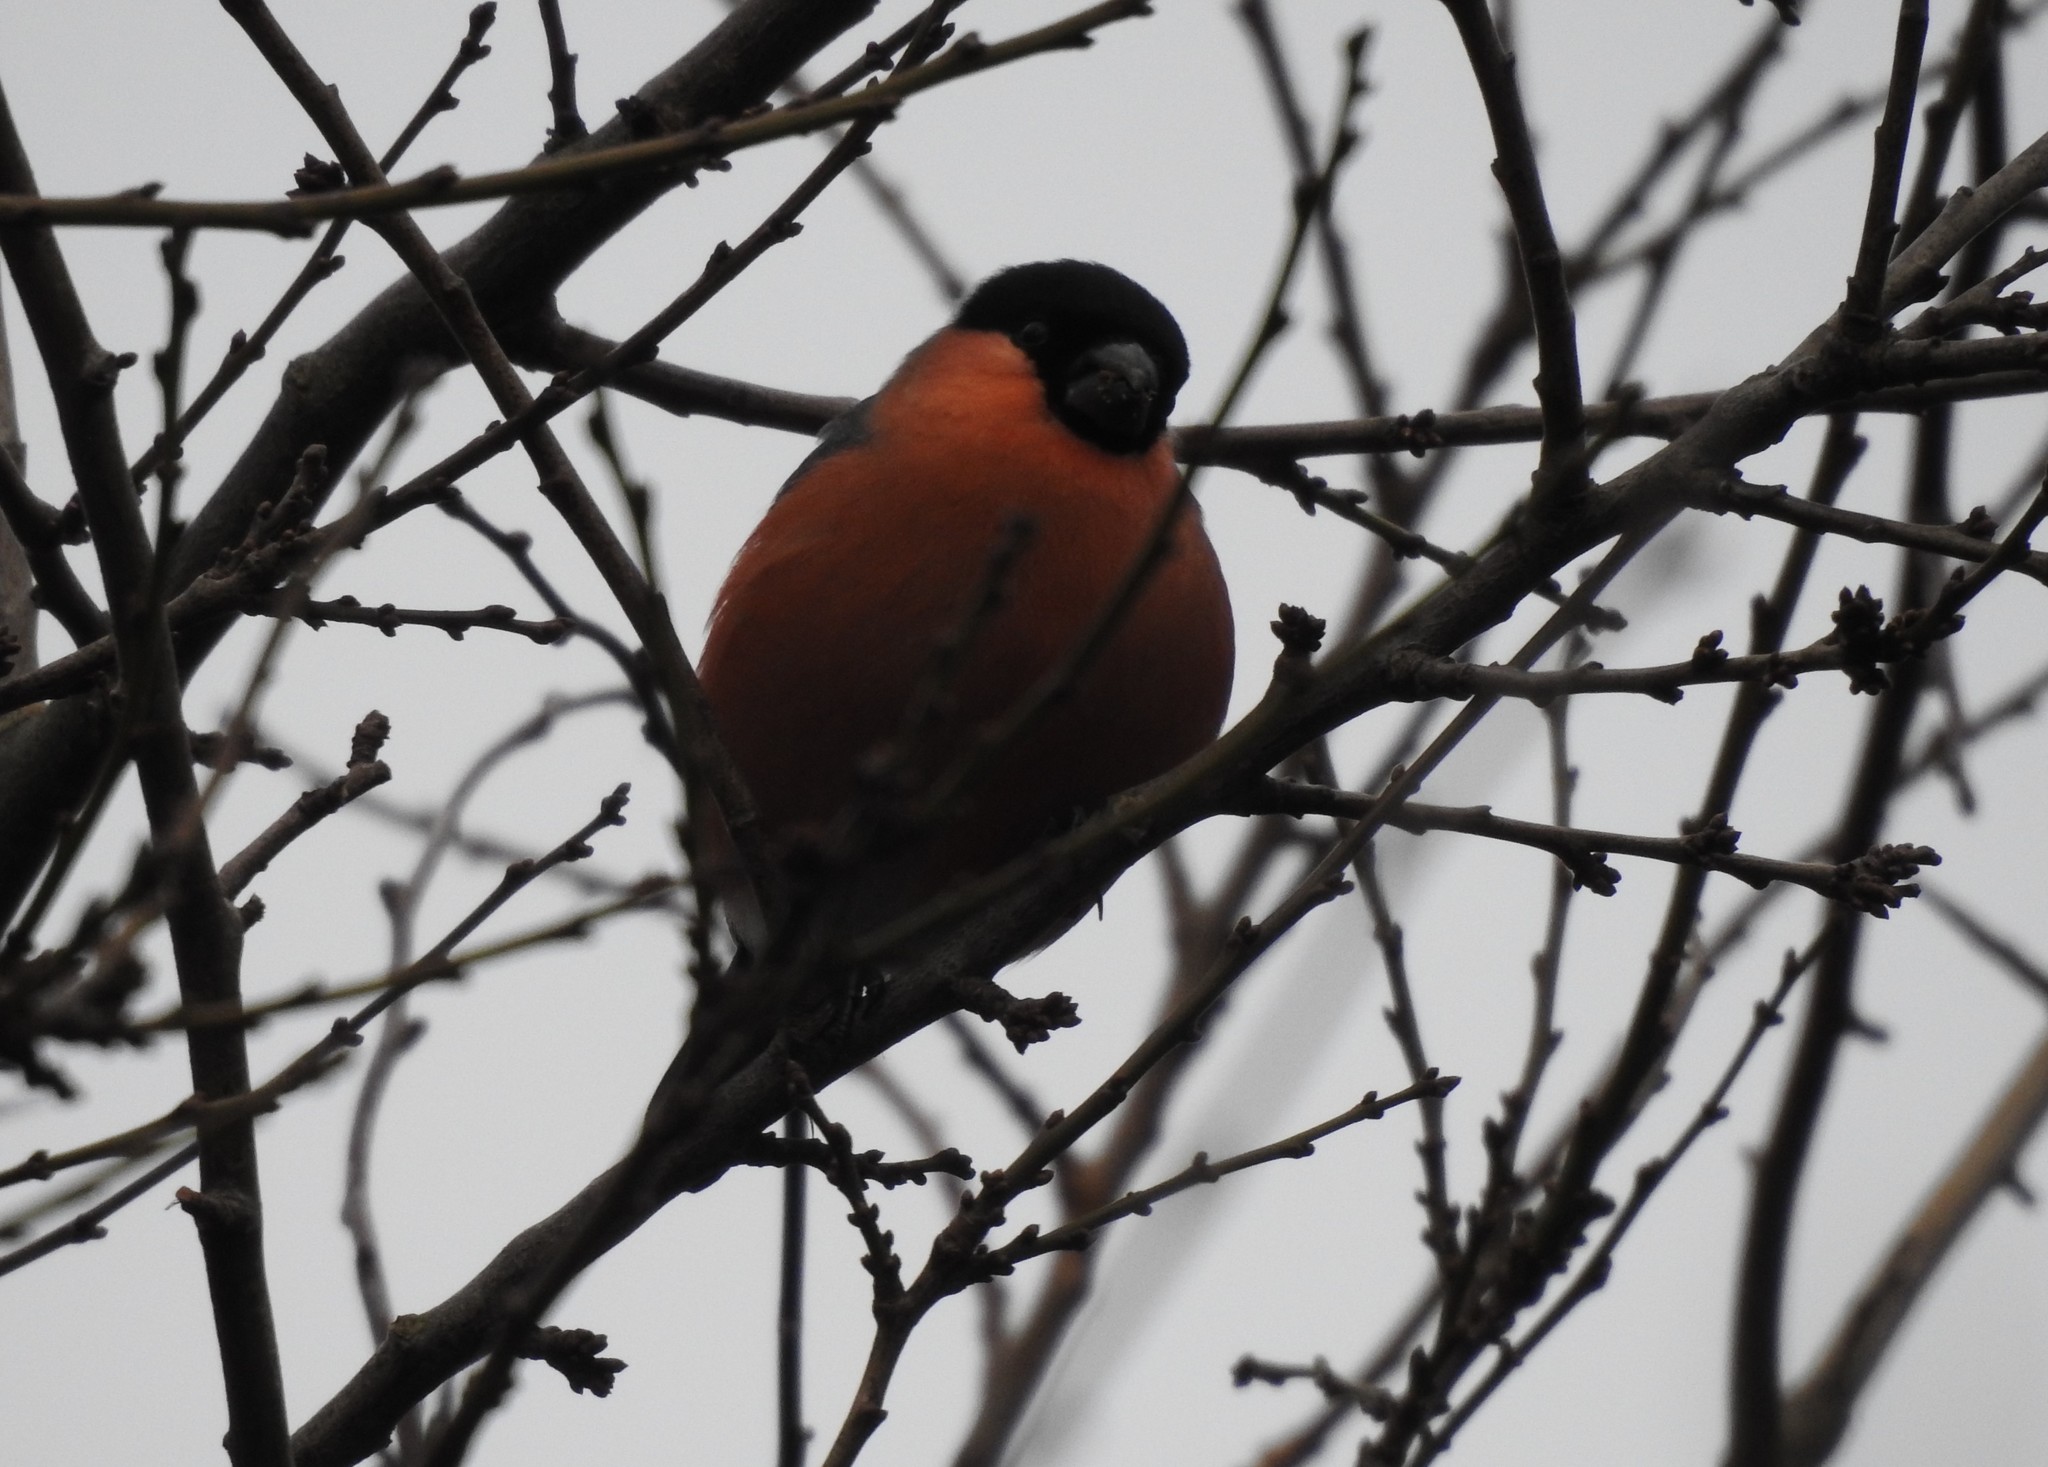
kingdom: Animalia
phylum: Chordata
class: Aves
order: Passeriformes
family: Fringillidae
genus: Pyrrhula
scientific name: Pyrrhula pyrrhula
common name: Eurasian bullfinch
